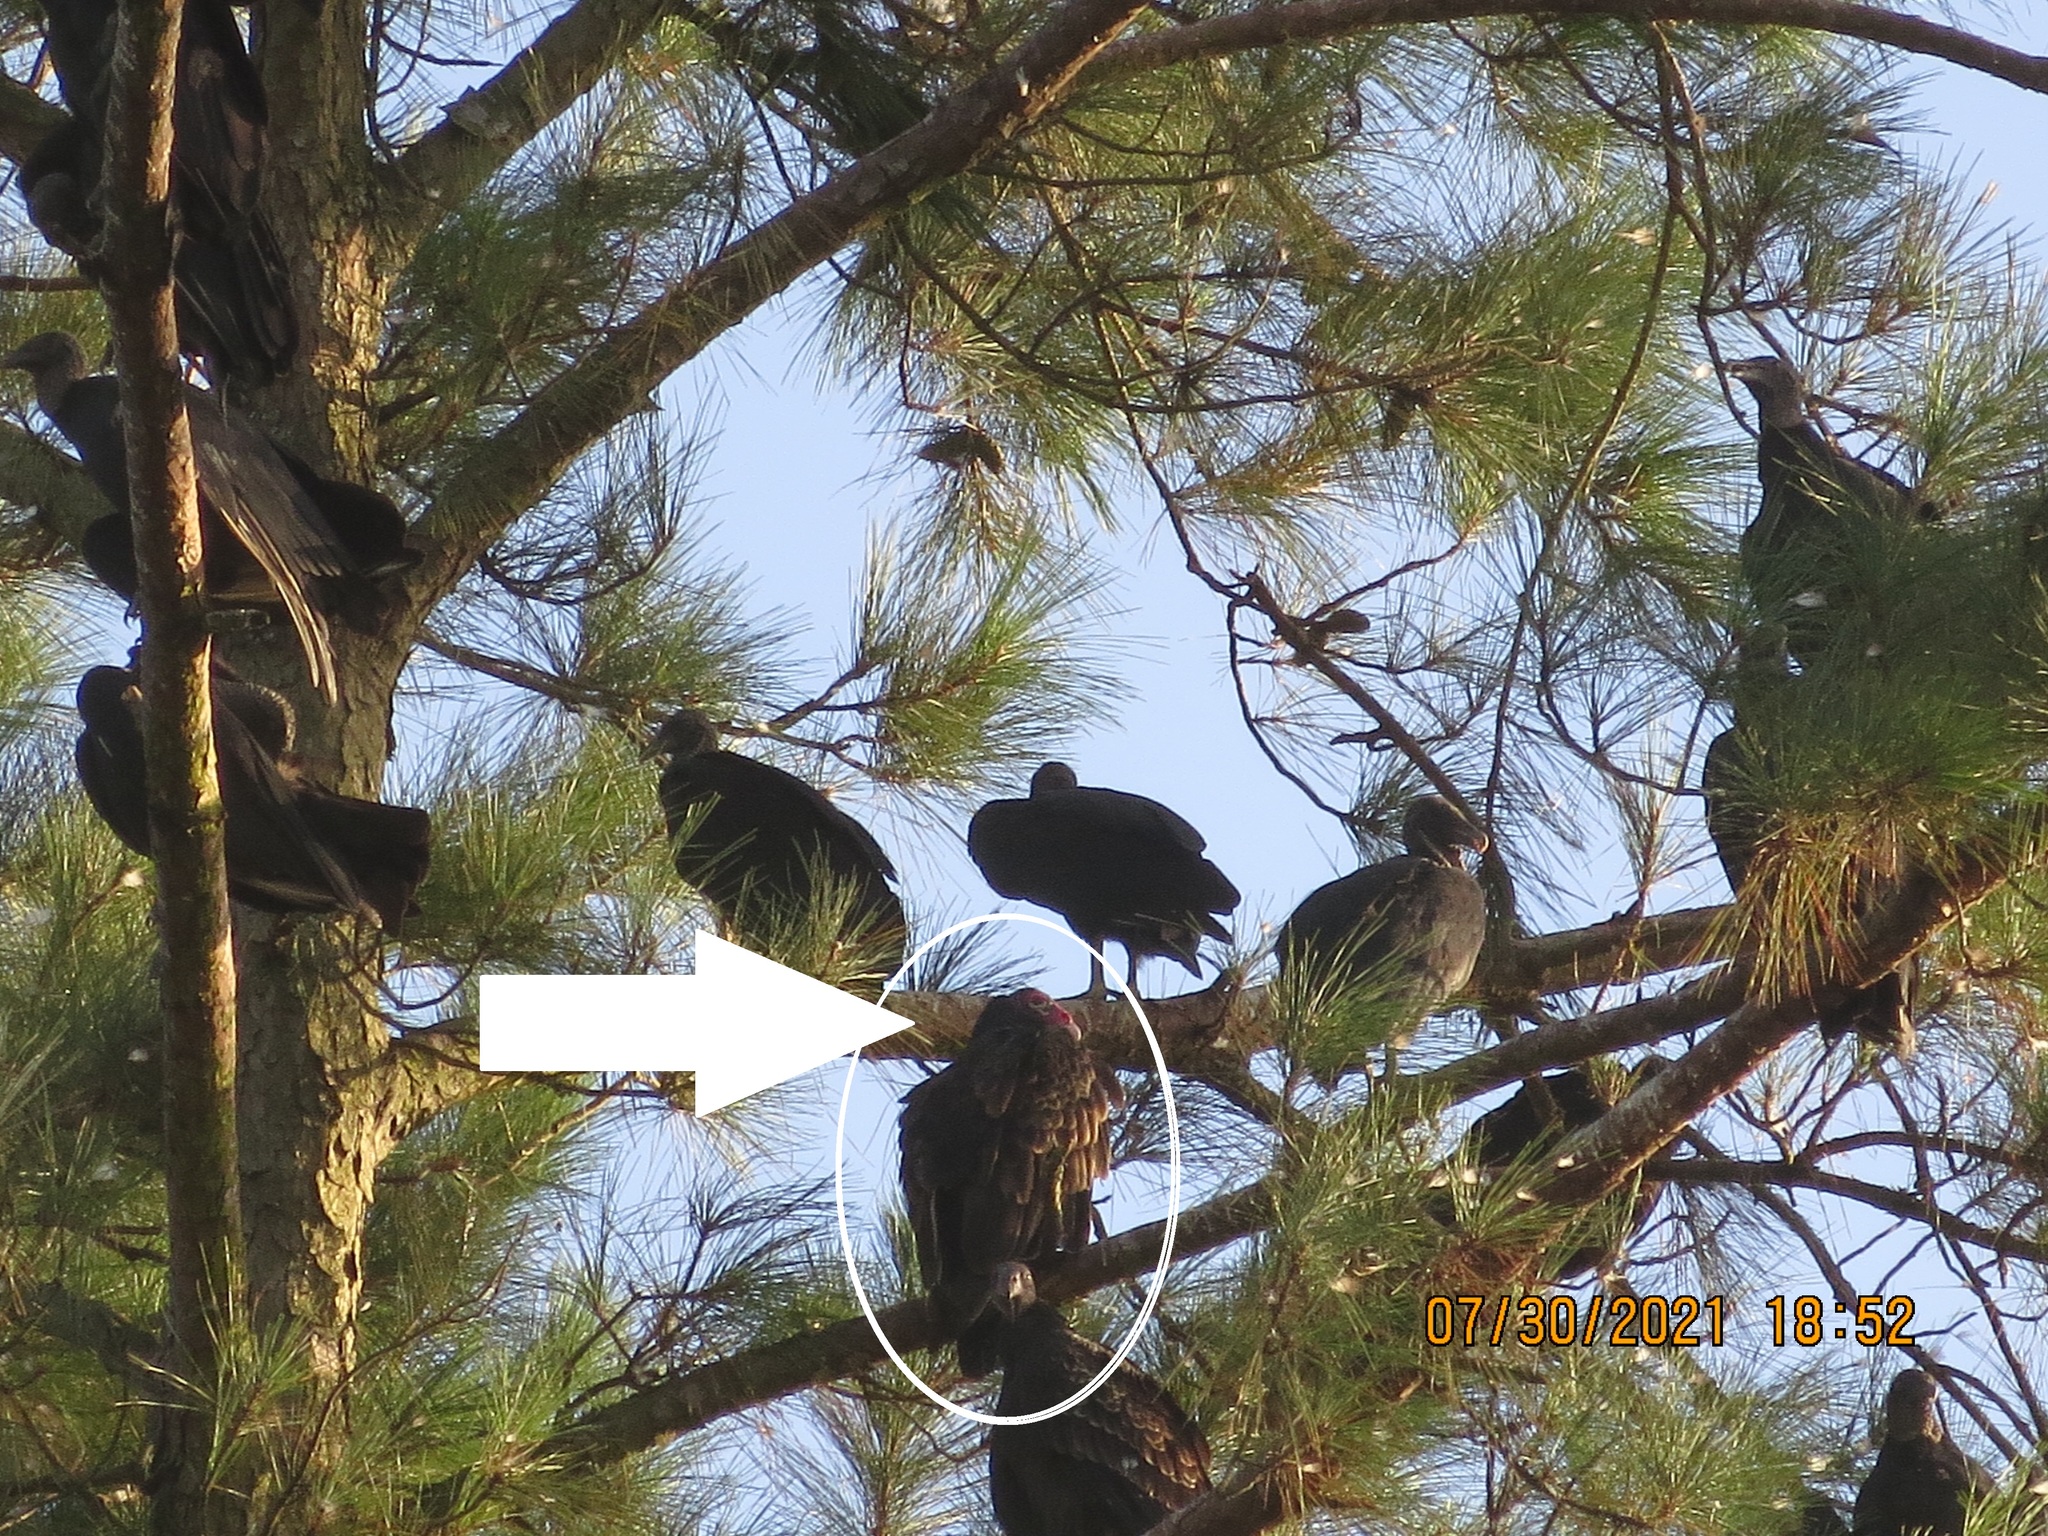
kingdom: Animalia
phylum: Chordata
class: Aves
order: Accipitriformes
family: Cathartidae
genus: Cathartes
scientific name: Cathartes aura
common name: Turkey vulture
